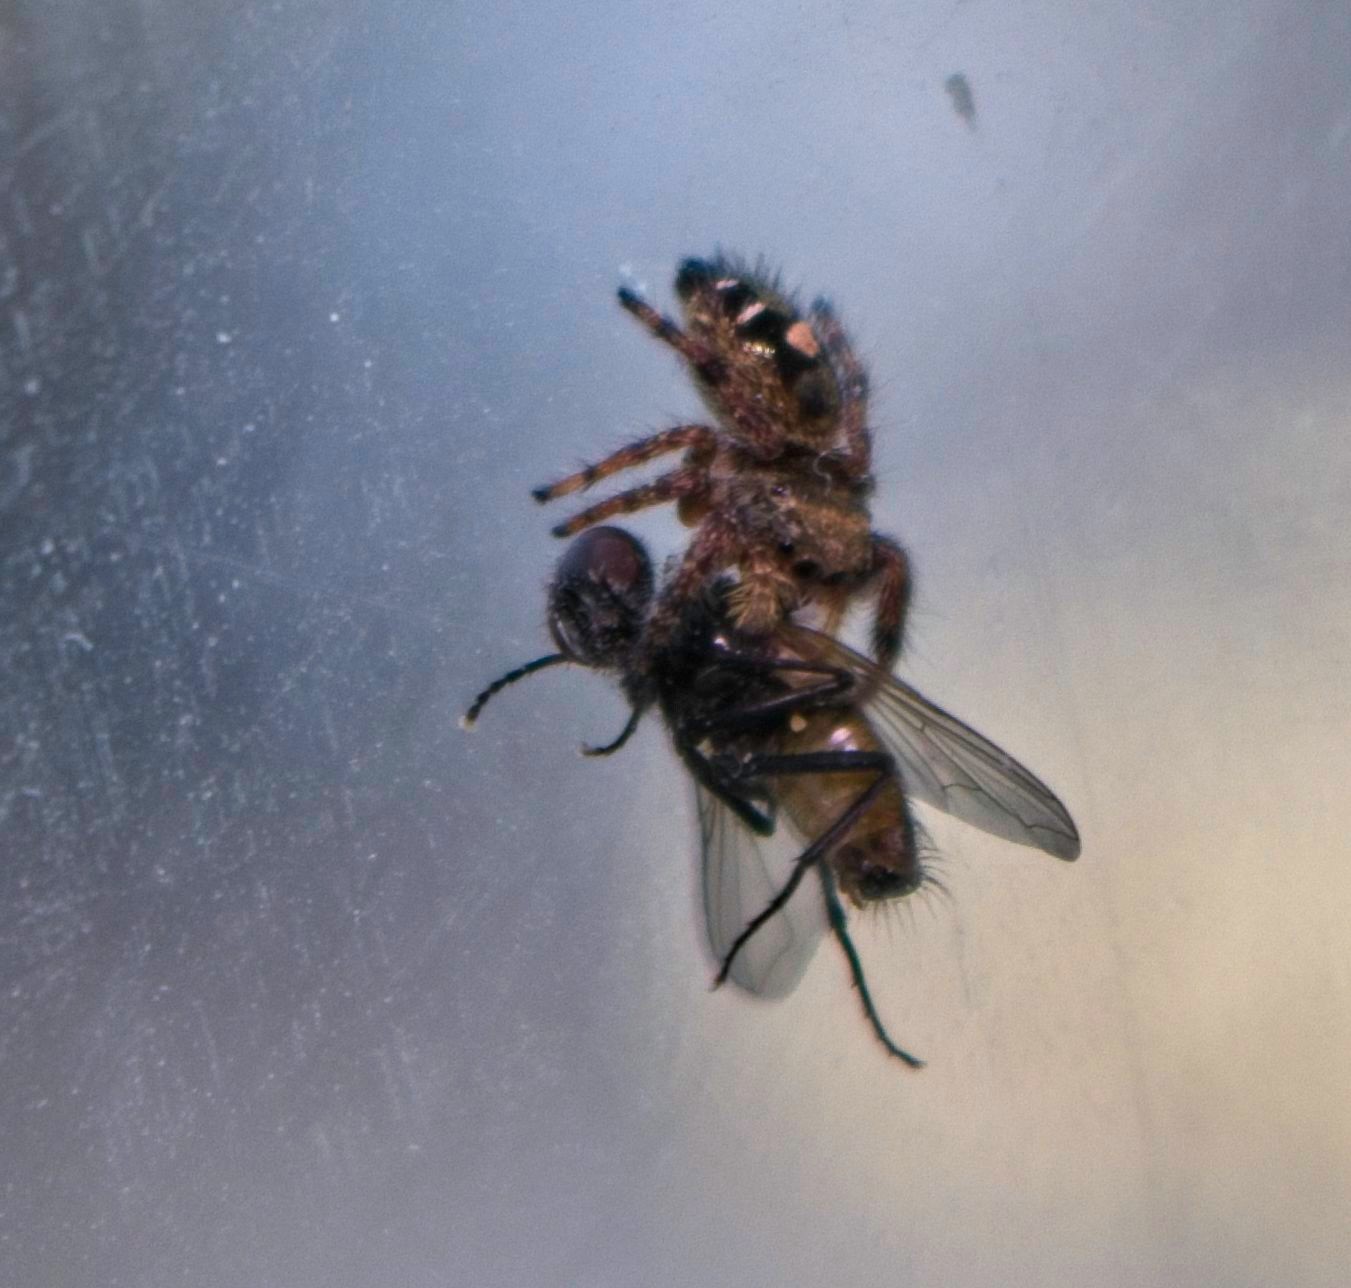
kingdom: Animalia
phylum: Arthropoda
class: Arachnida
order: Araneae
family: Salticidae
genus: Phidippus
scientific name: Phidippus audax
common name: Bold jumper
